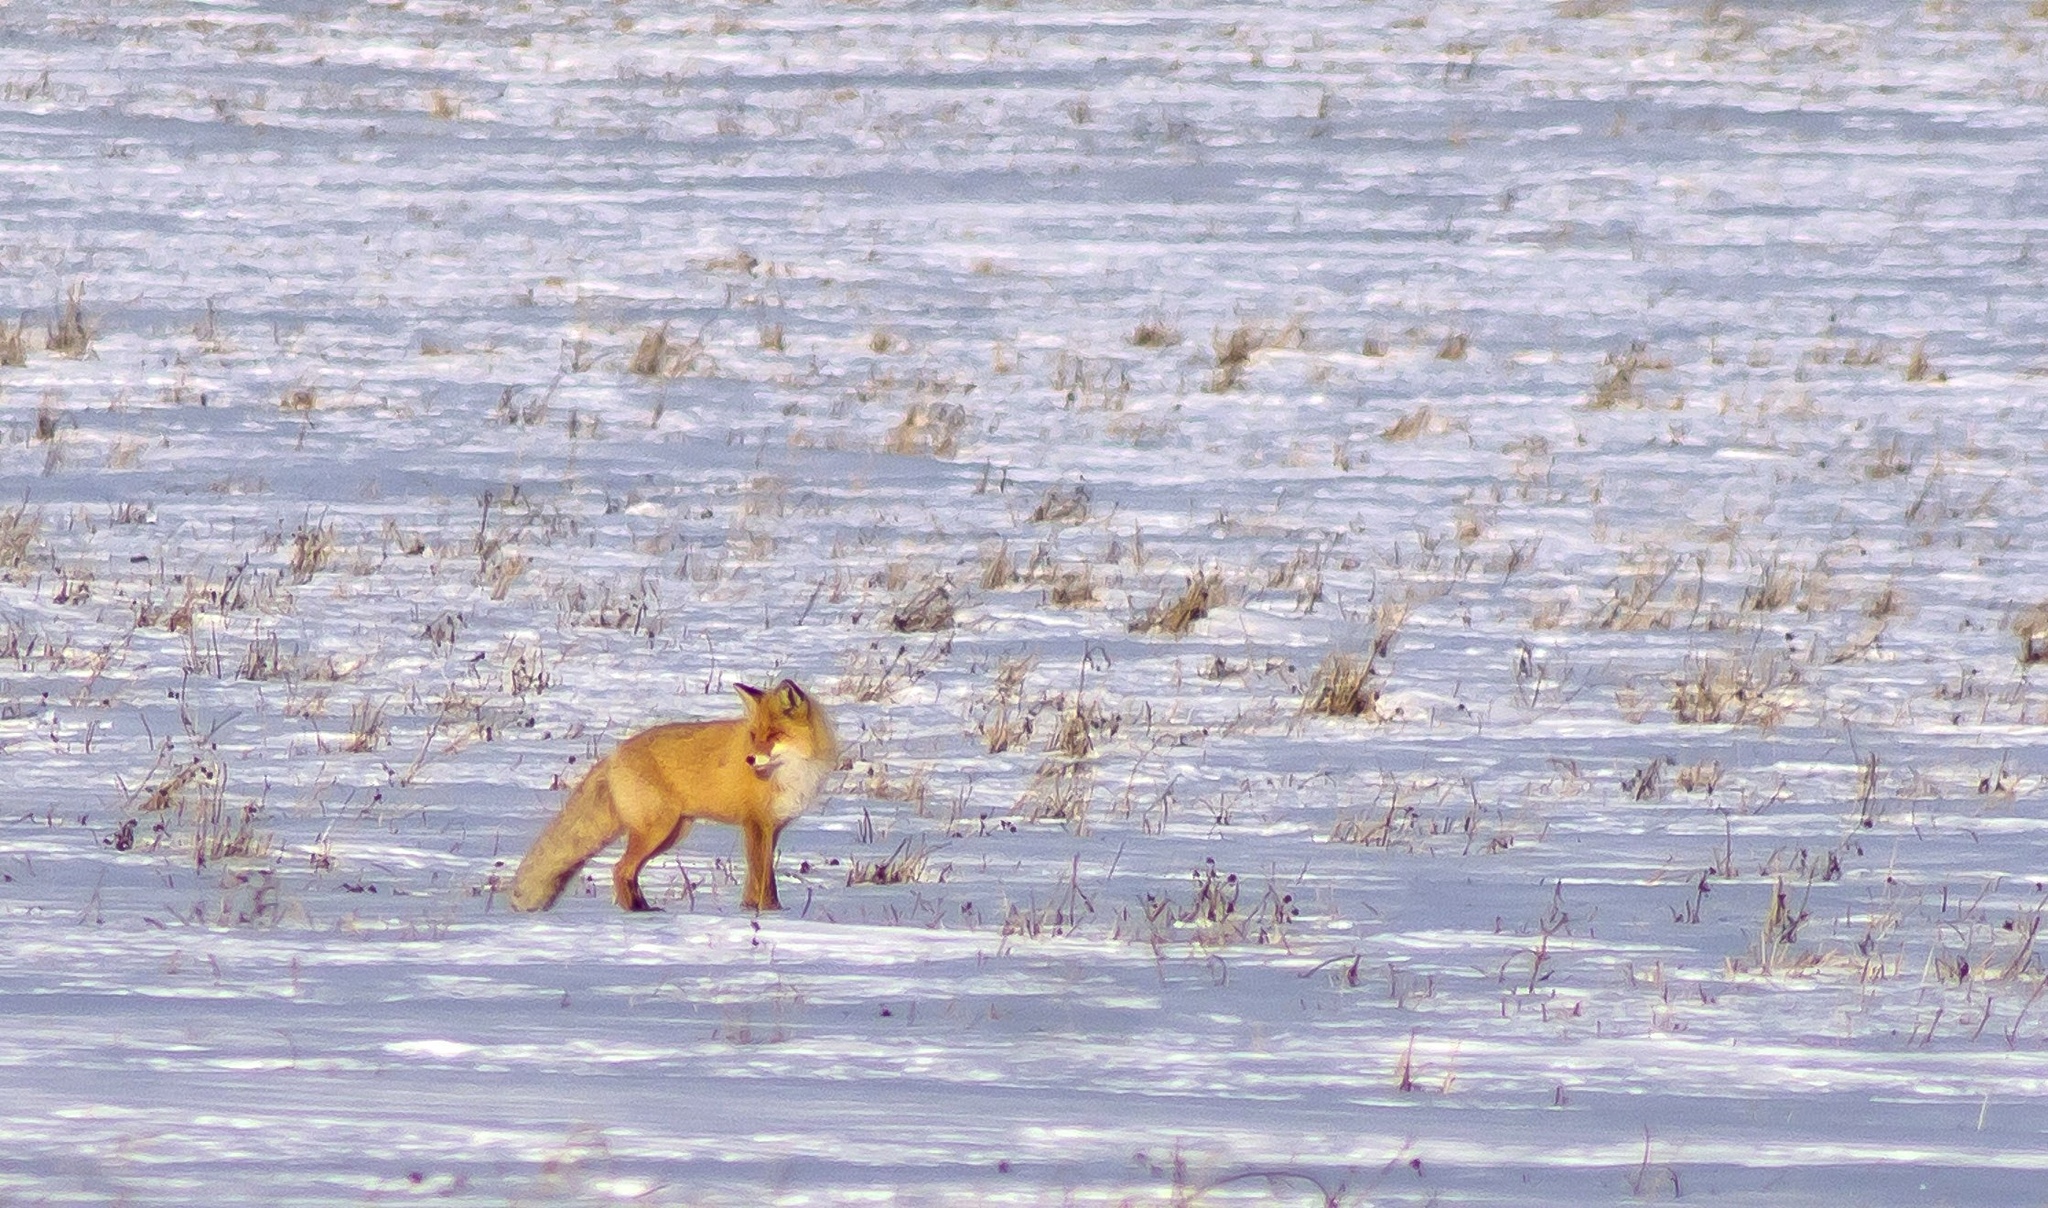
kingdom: Animalia
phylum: Chordata
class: Mammalia
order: Carnivora
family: Canidae
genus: Vulpes
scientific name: Vulpes vulpes
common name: Red fox
